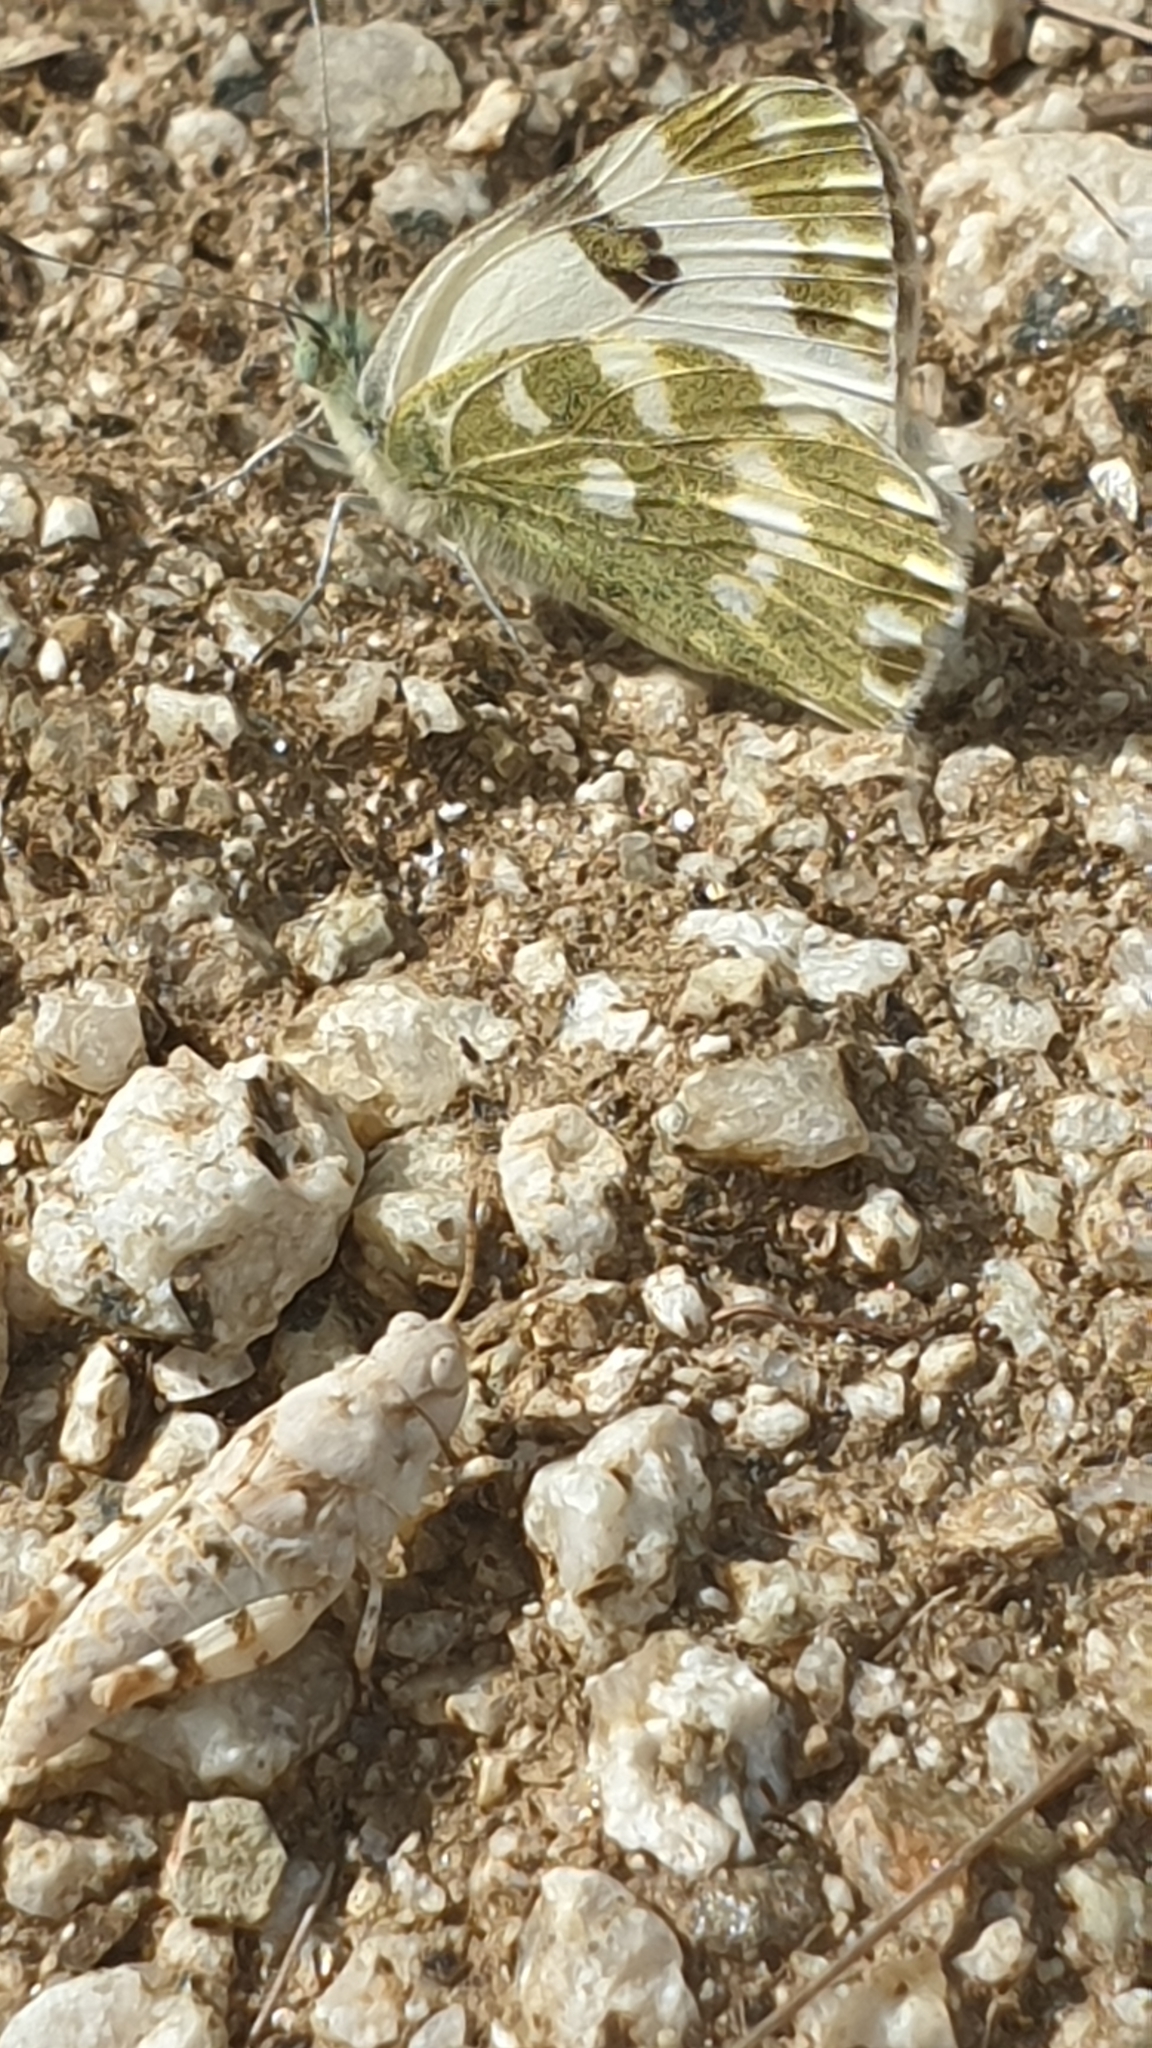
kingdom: Animalia
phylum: Arthropoda
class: Insecta
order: Lepidoptera
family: Pieridae
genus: Pontia
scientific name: Pontia daplidice
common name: Bath white
